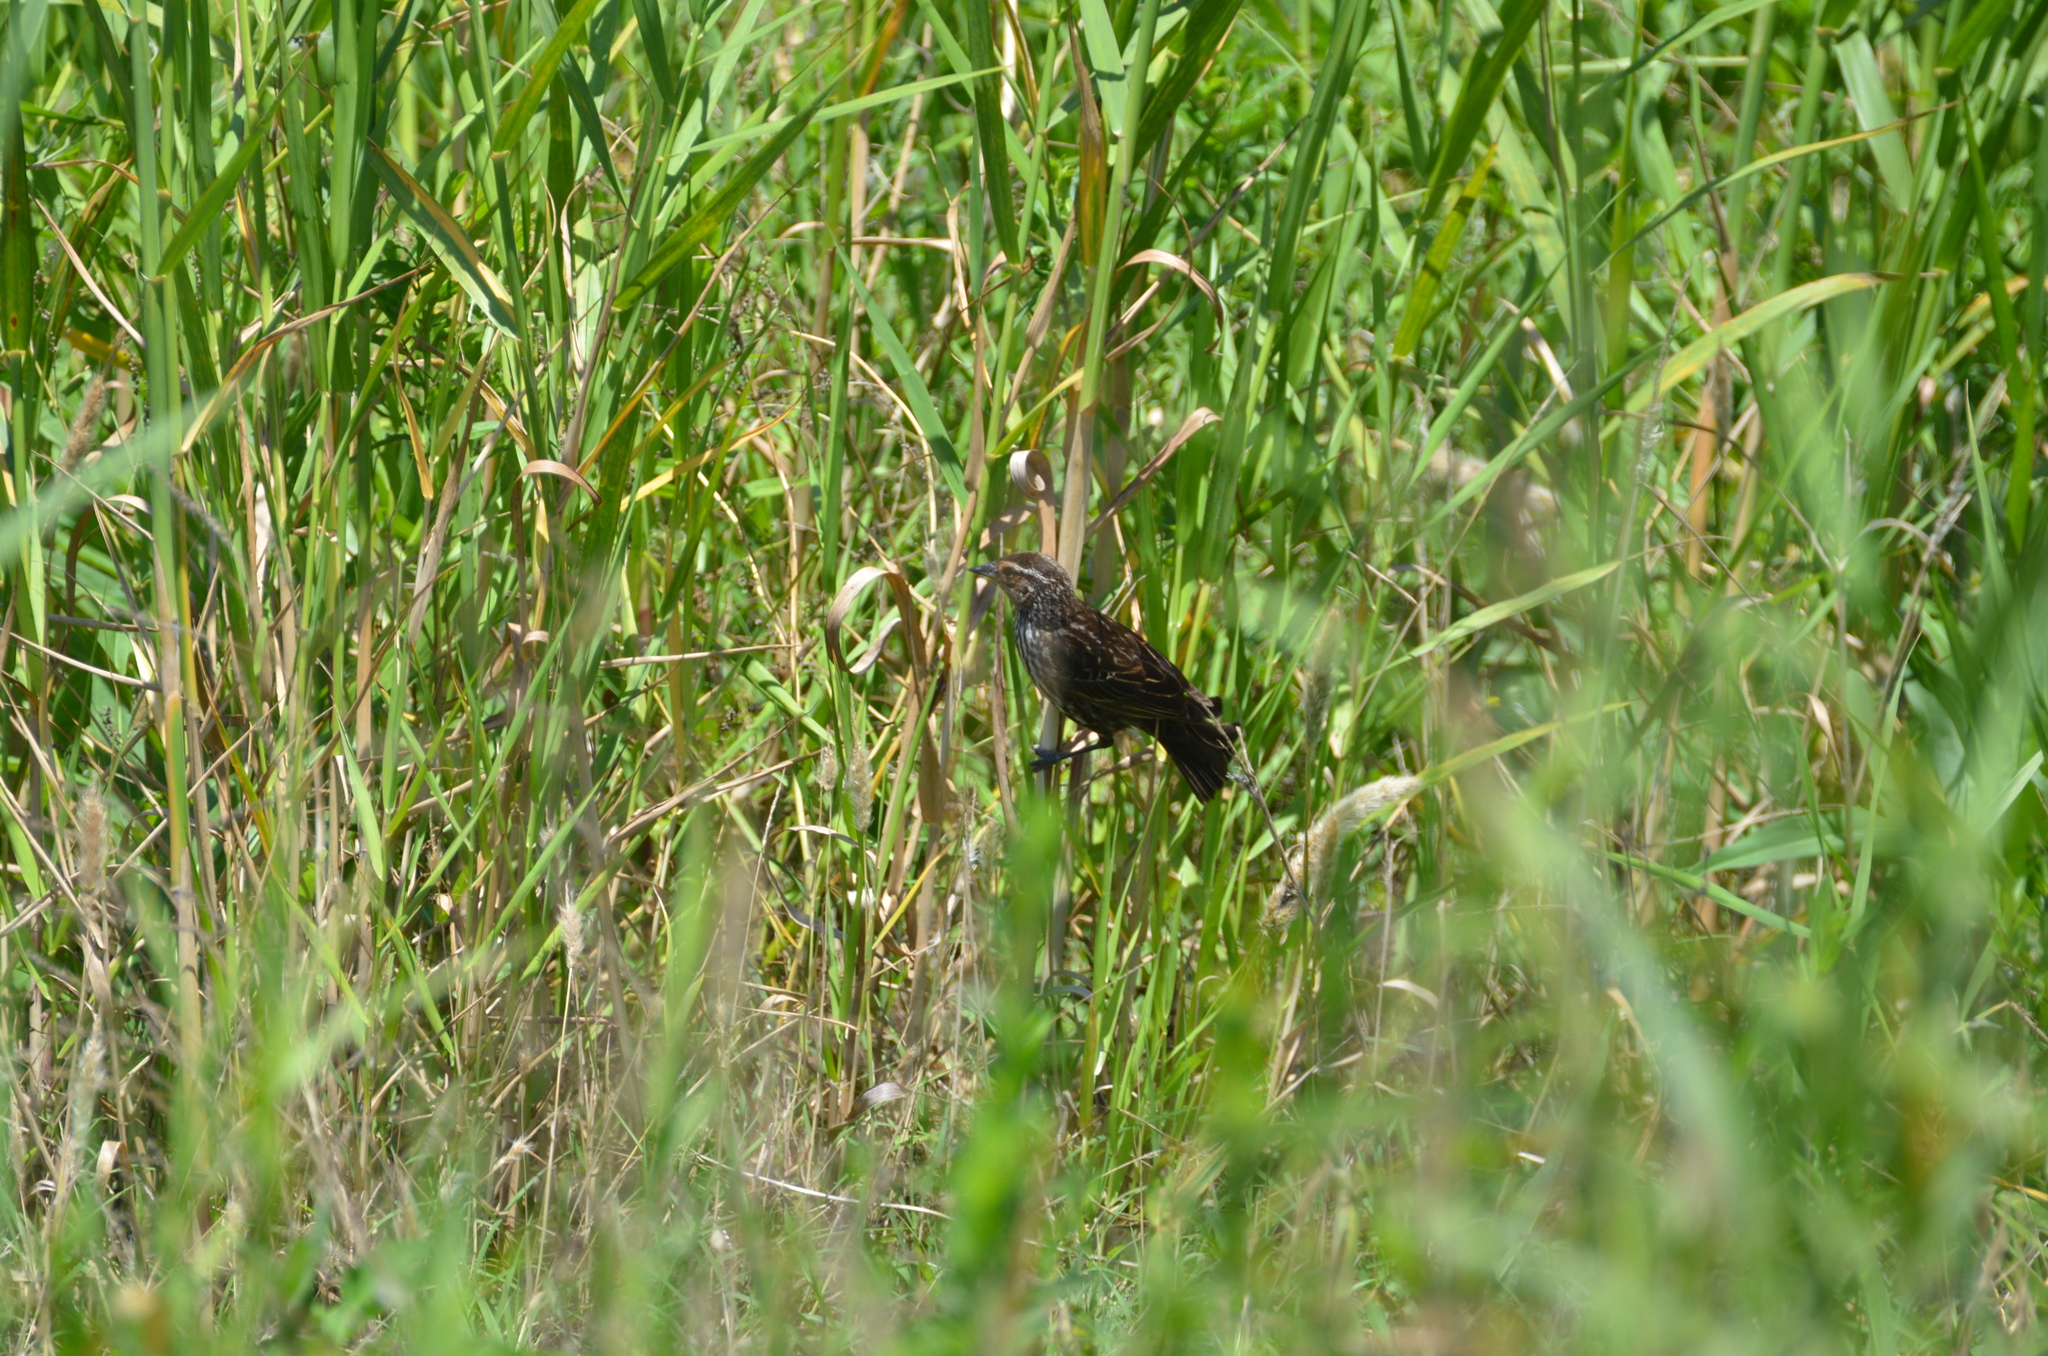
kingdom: Animalia
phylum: Chordata
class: Aves
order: Passeriformes
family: Icteridae
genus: Agelaius
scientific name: Agelaius phoeniceus
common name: Red-winged blackbird
